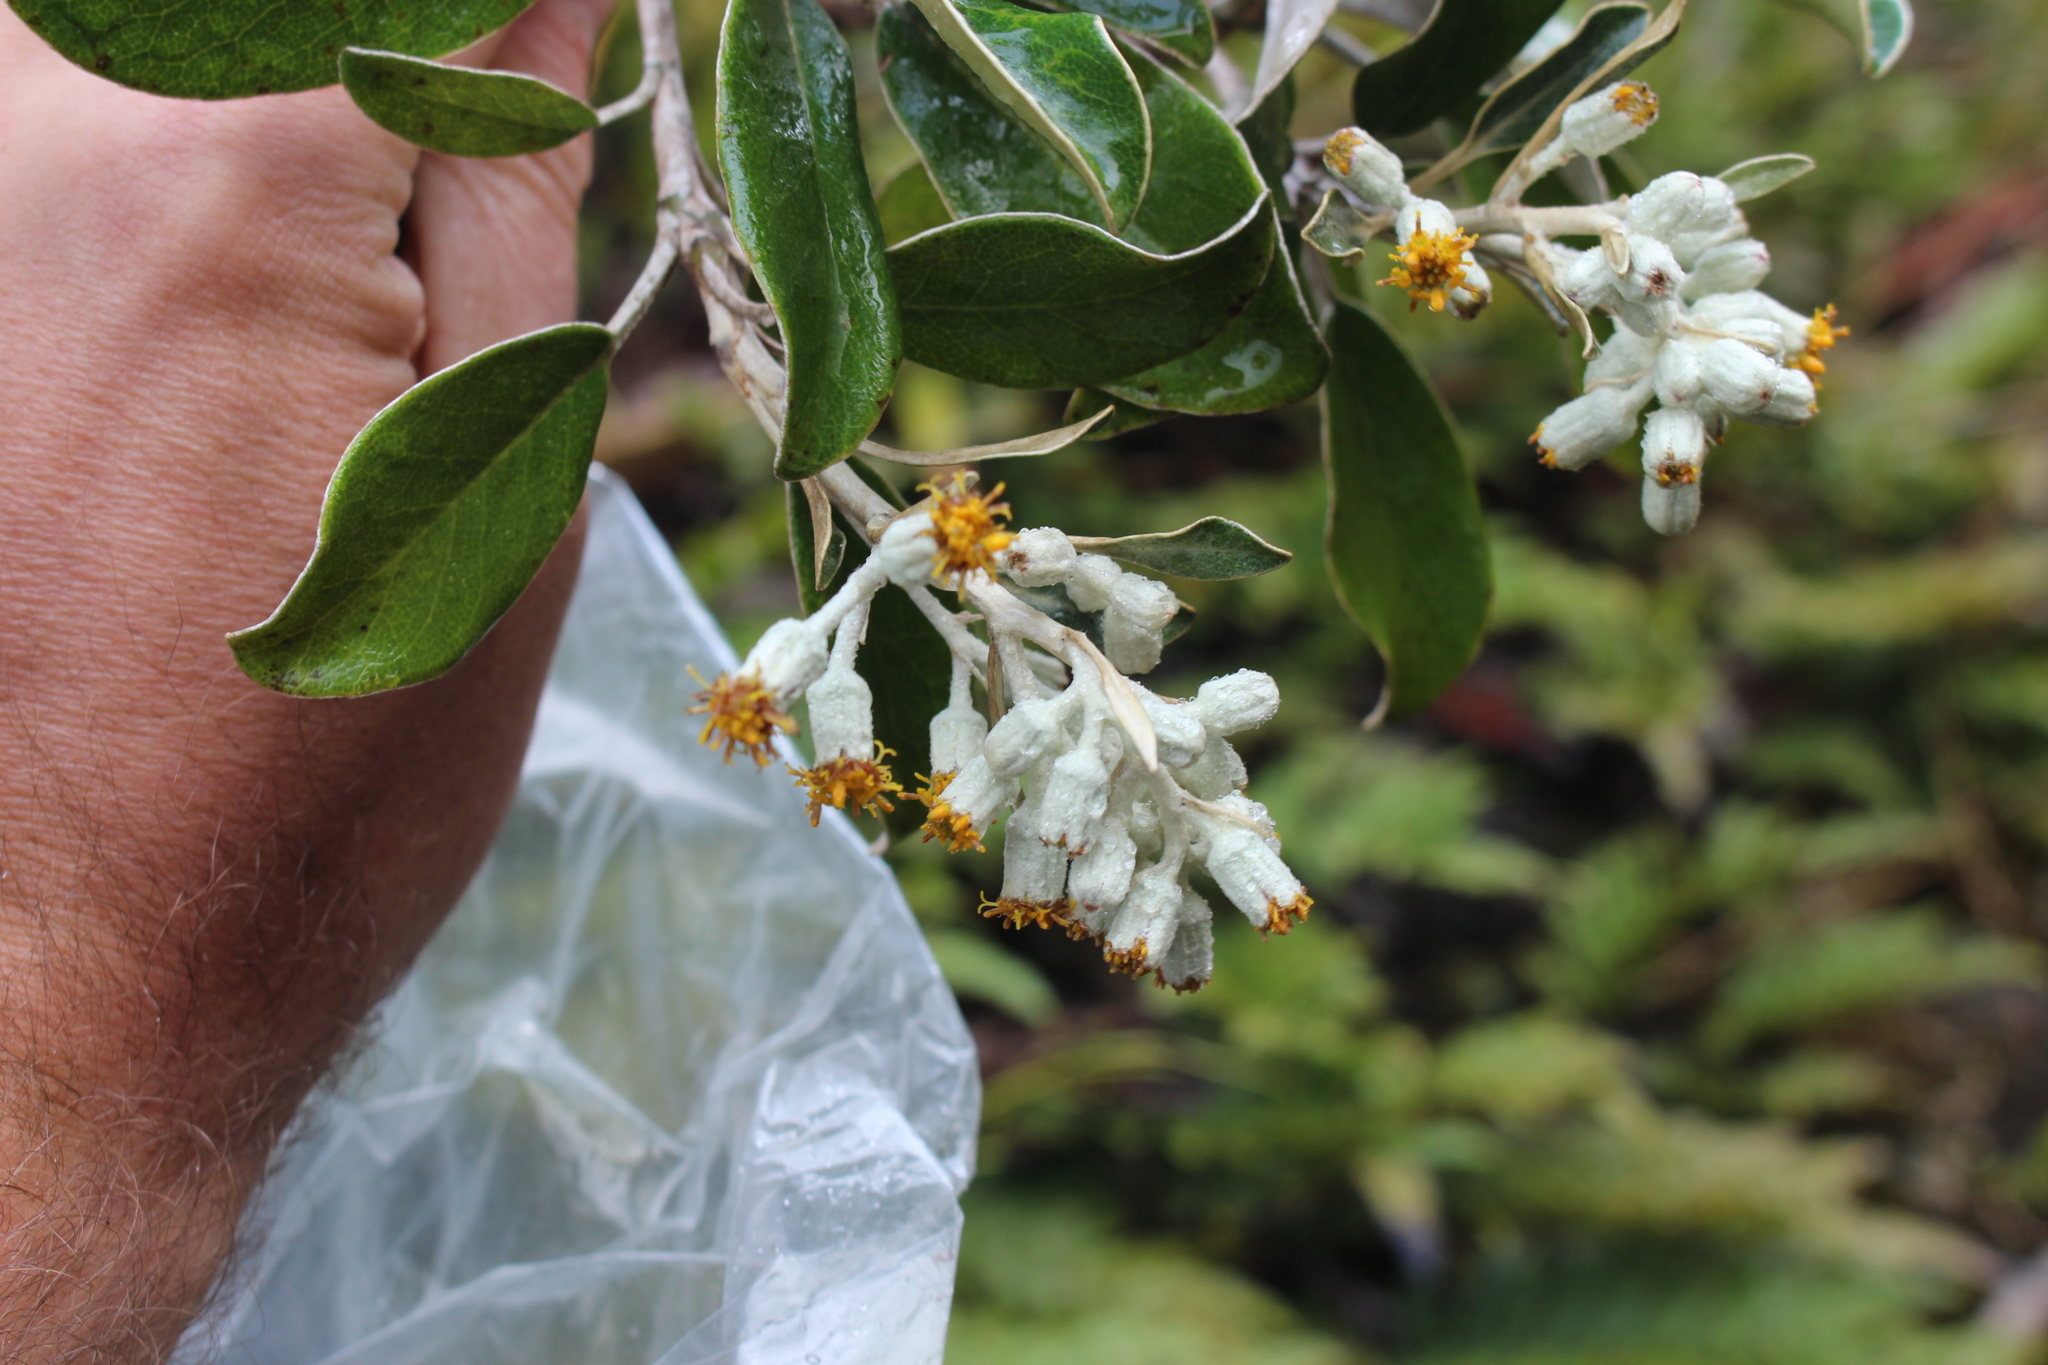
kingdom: Plantae
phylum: Tracheophyta
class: Magnoliopsida
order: Asterales
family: Asteraceae
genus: Brachyglottis
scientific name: Brachyglottis elaeagnifolia
